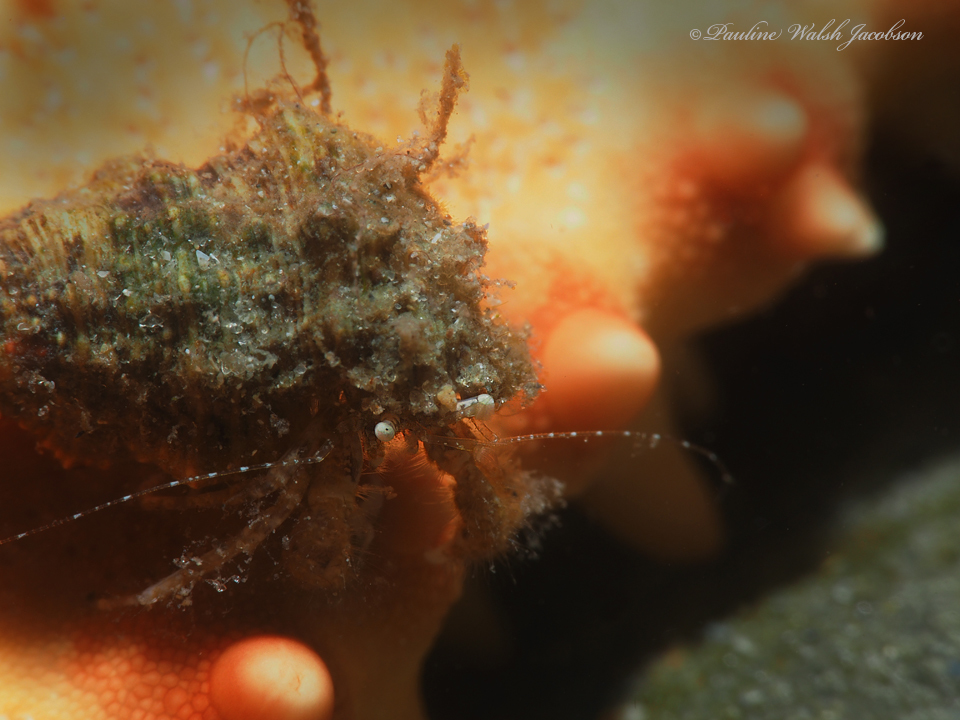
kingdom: Animalia
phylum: Arthropoda
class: Malacostraca
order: Decapoda
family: Paguridae
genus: Pagurus
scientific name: Pagurus maclaughlinae
